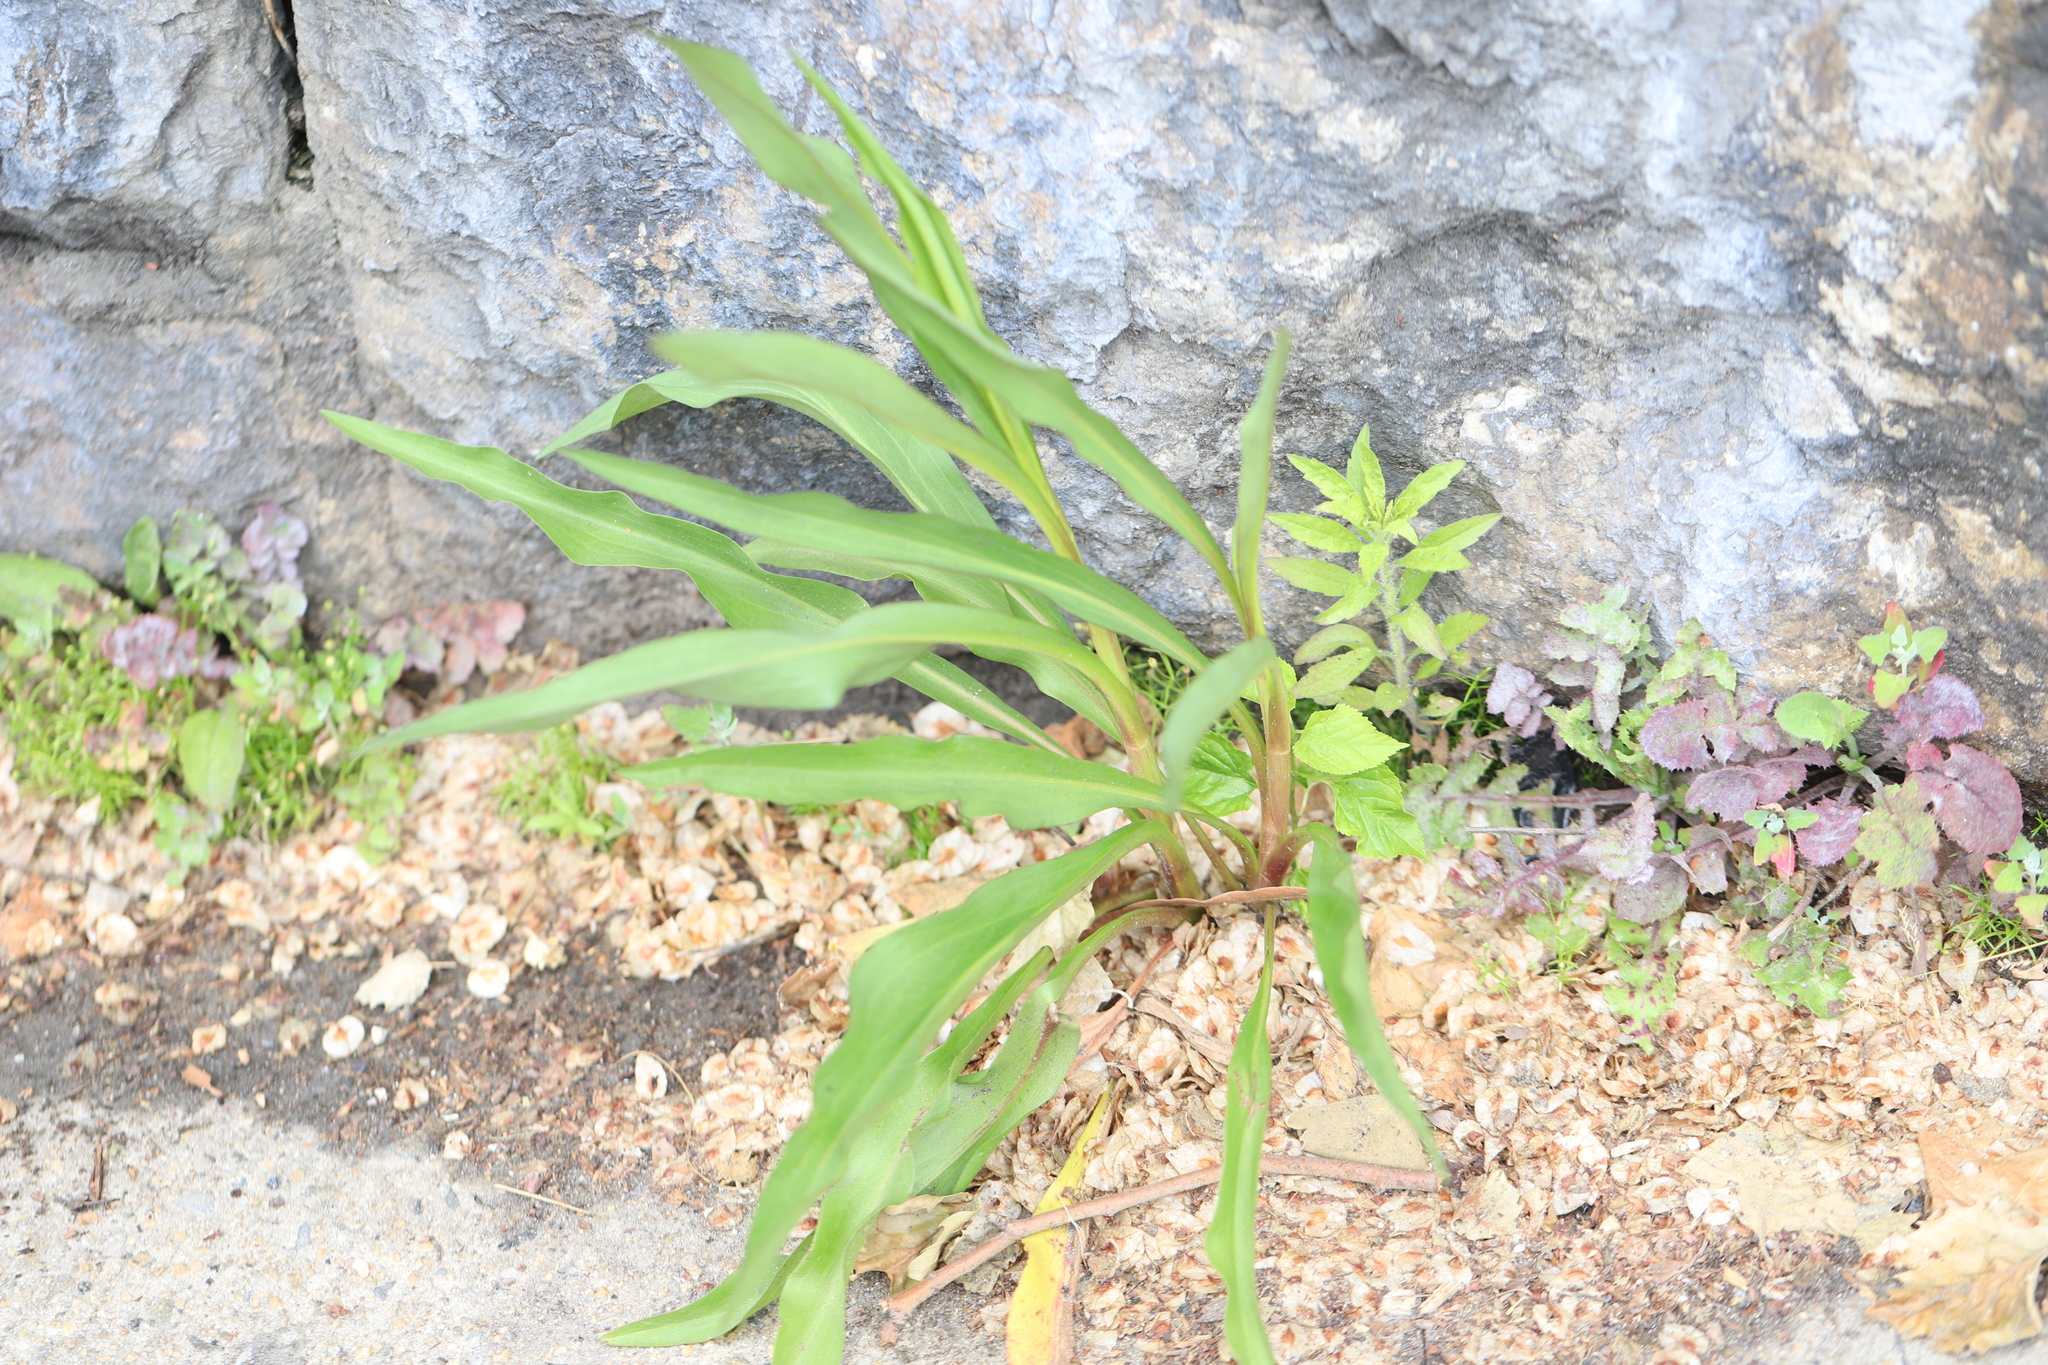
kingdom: Plantae
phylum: Tracheophyta
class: Magnoliopsida
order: Asterales
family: Asteraceae
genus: Solidago
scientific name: Solidago sempervirens
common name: Salt-marsh goldenrod
